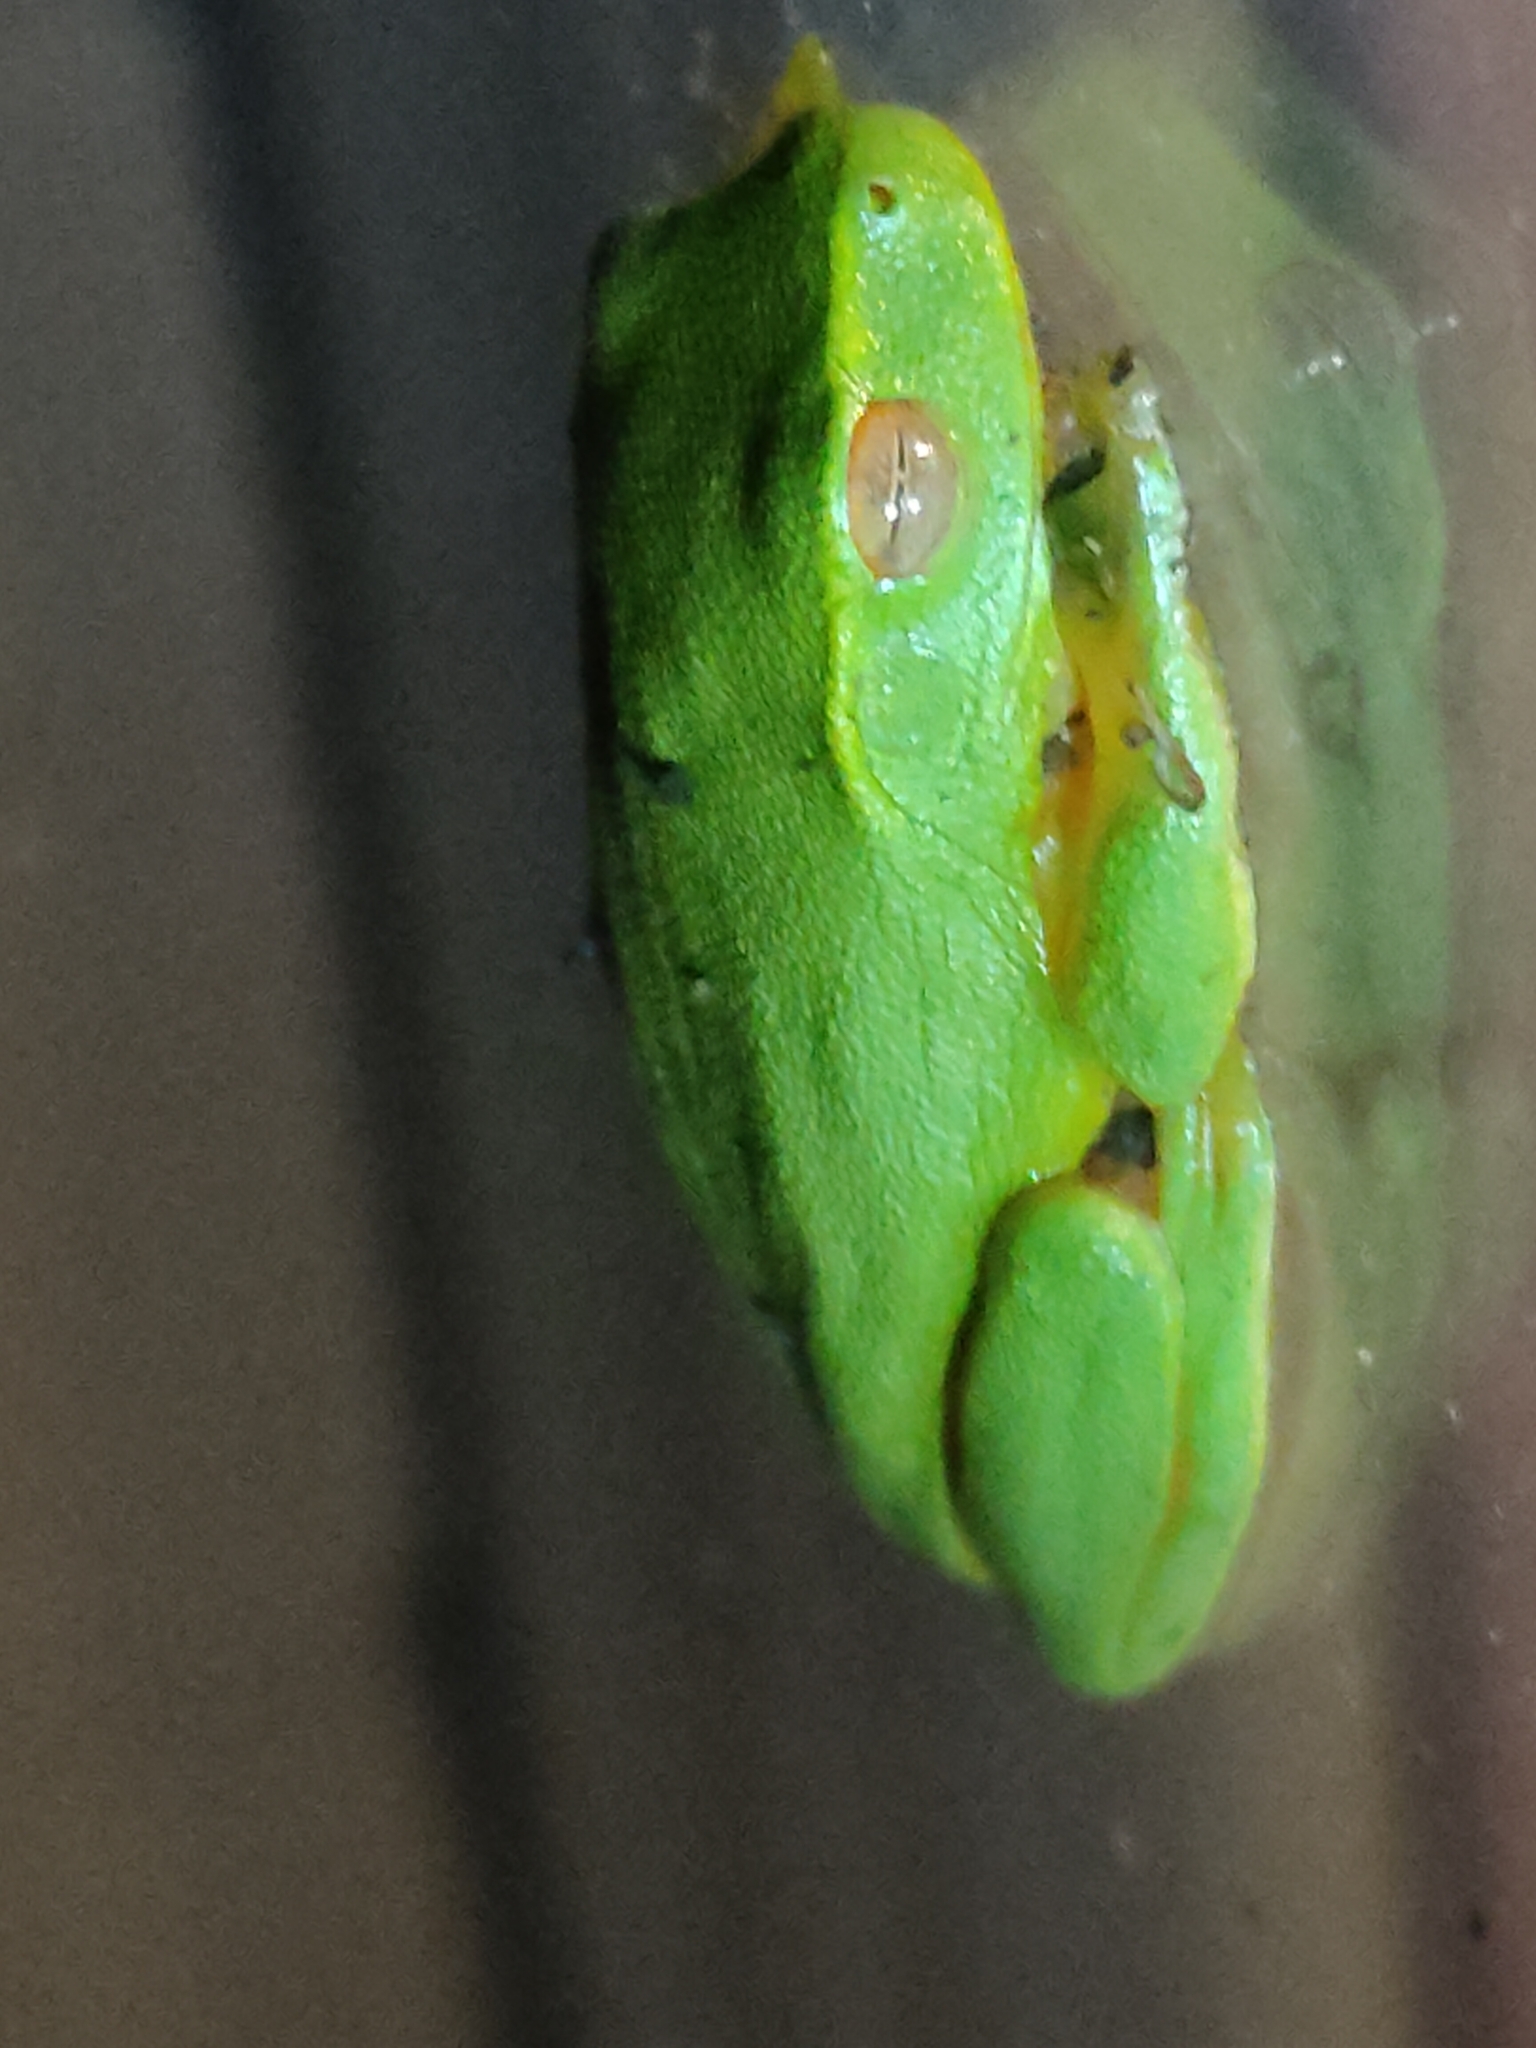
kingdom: Animalia
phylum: Chordata
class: Amphibia
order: Anura
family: Pelodryadidae
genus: Ranoidea
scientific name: Ranoidea gracilenta
